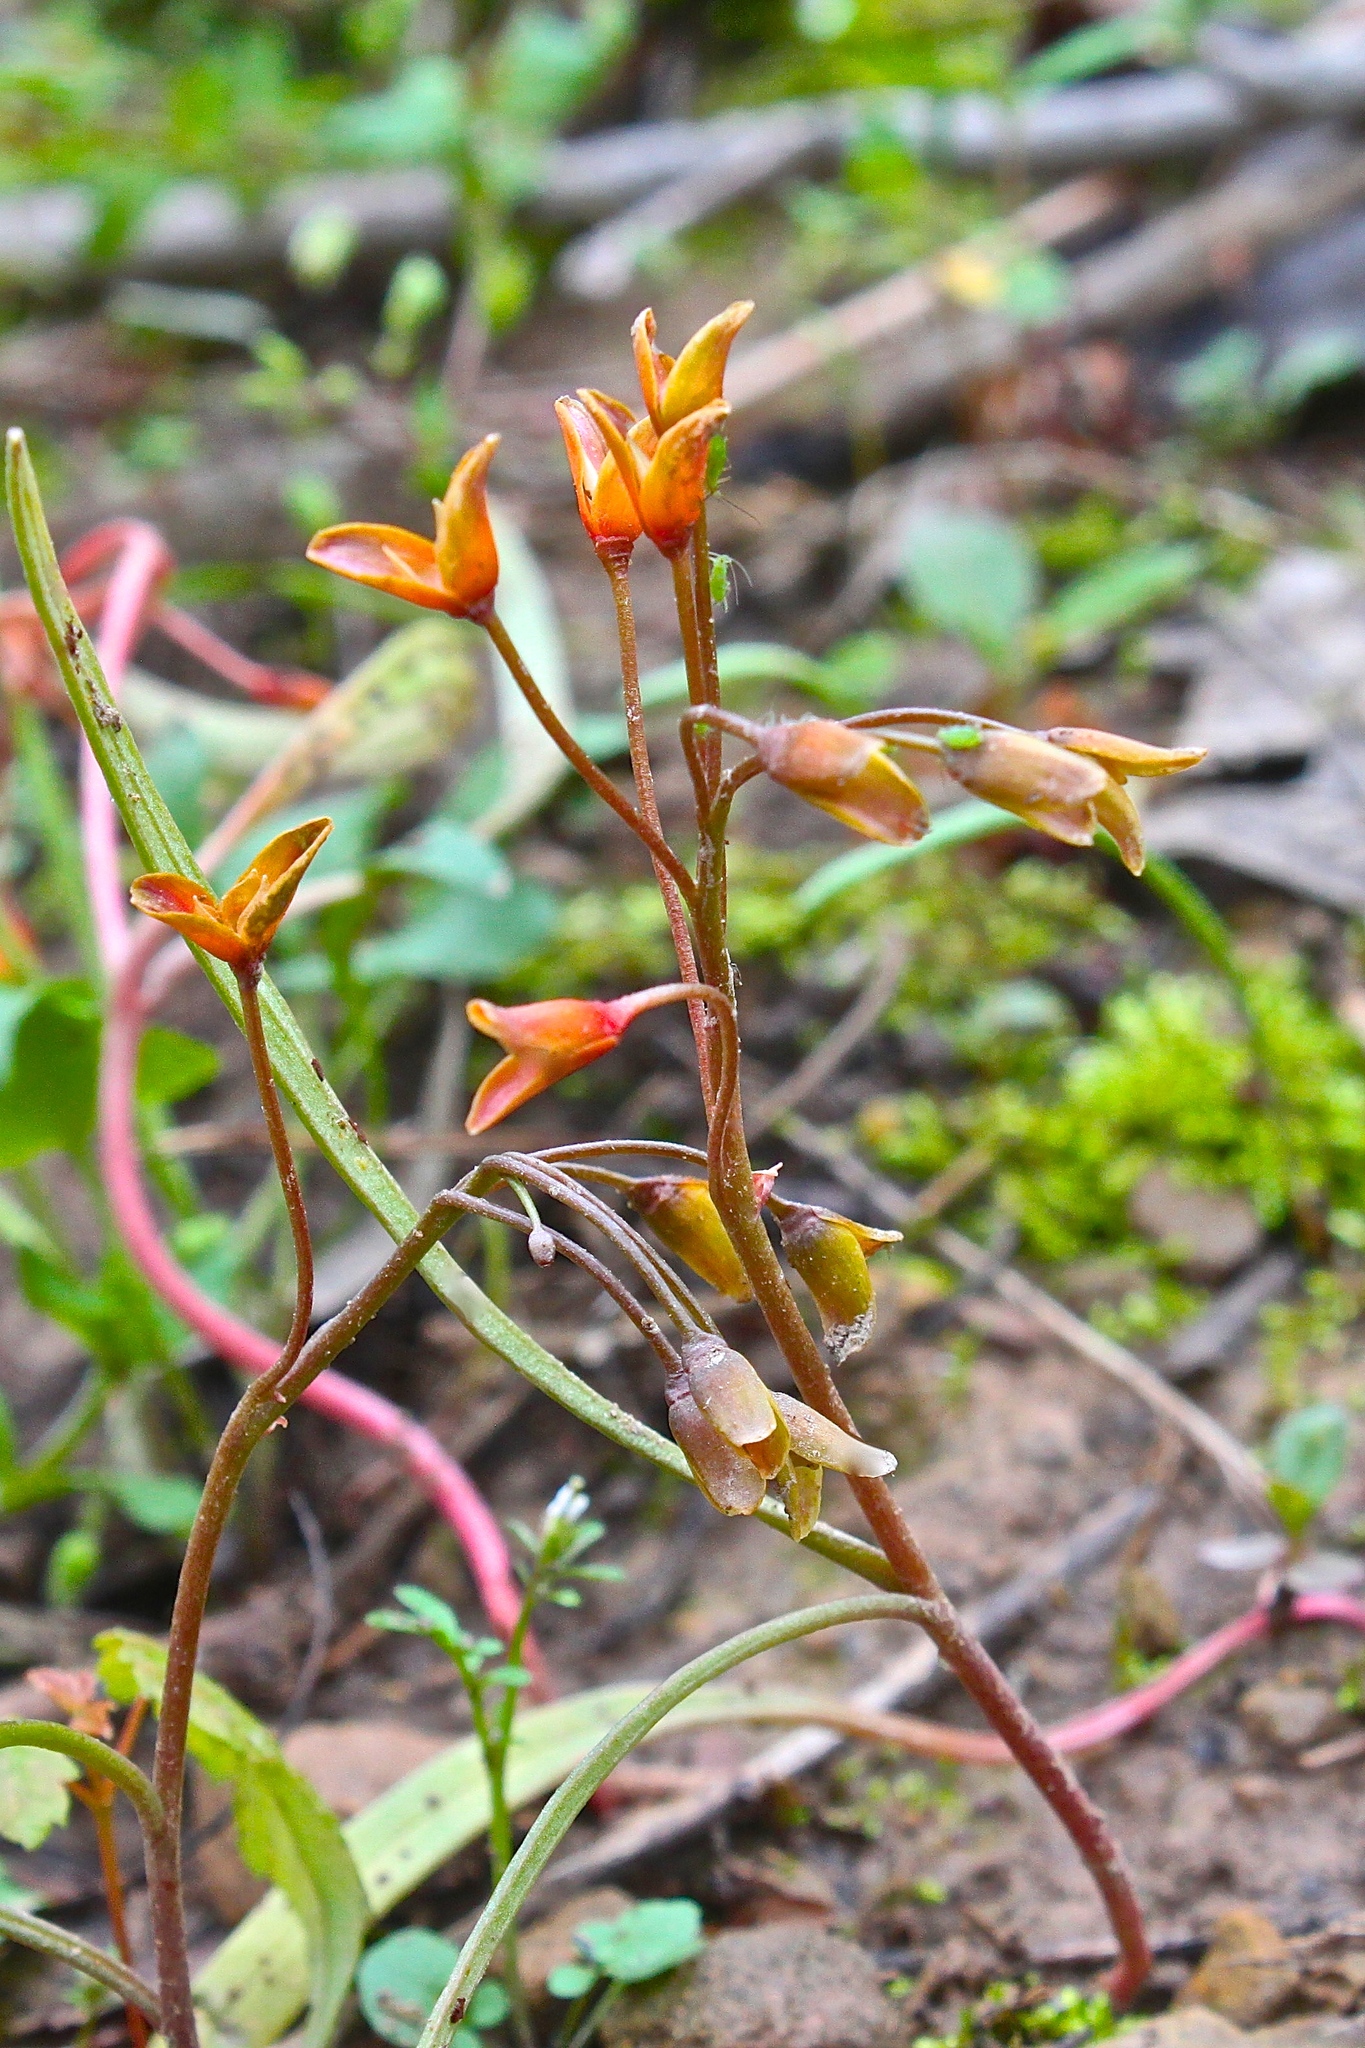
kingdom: Plantae
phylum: Tracheophyta
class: Magnoliopsida
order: Caryophyllales
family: Montiaceae
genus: Claytonia
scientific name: Claytonia virginica
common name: Virginia springbeauty
